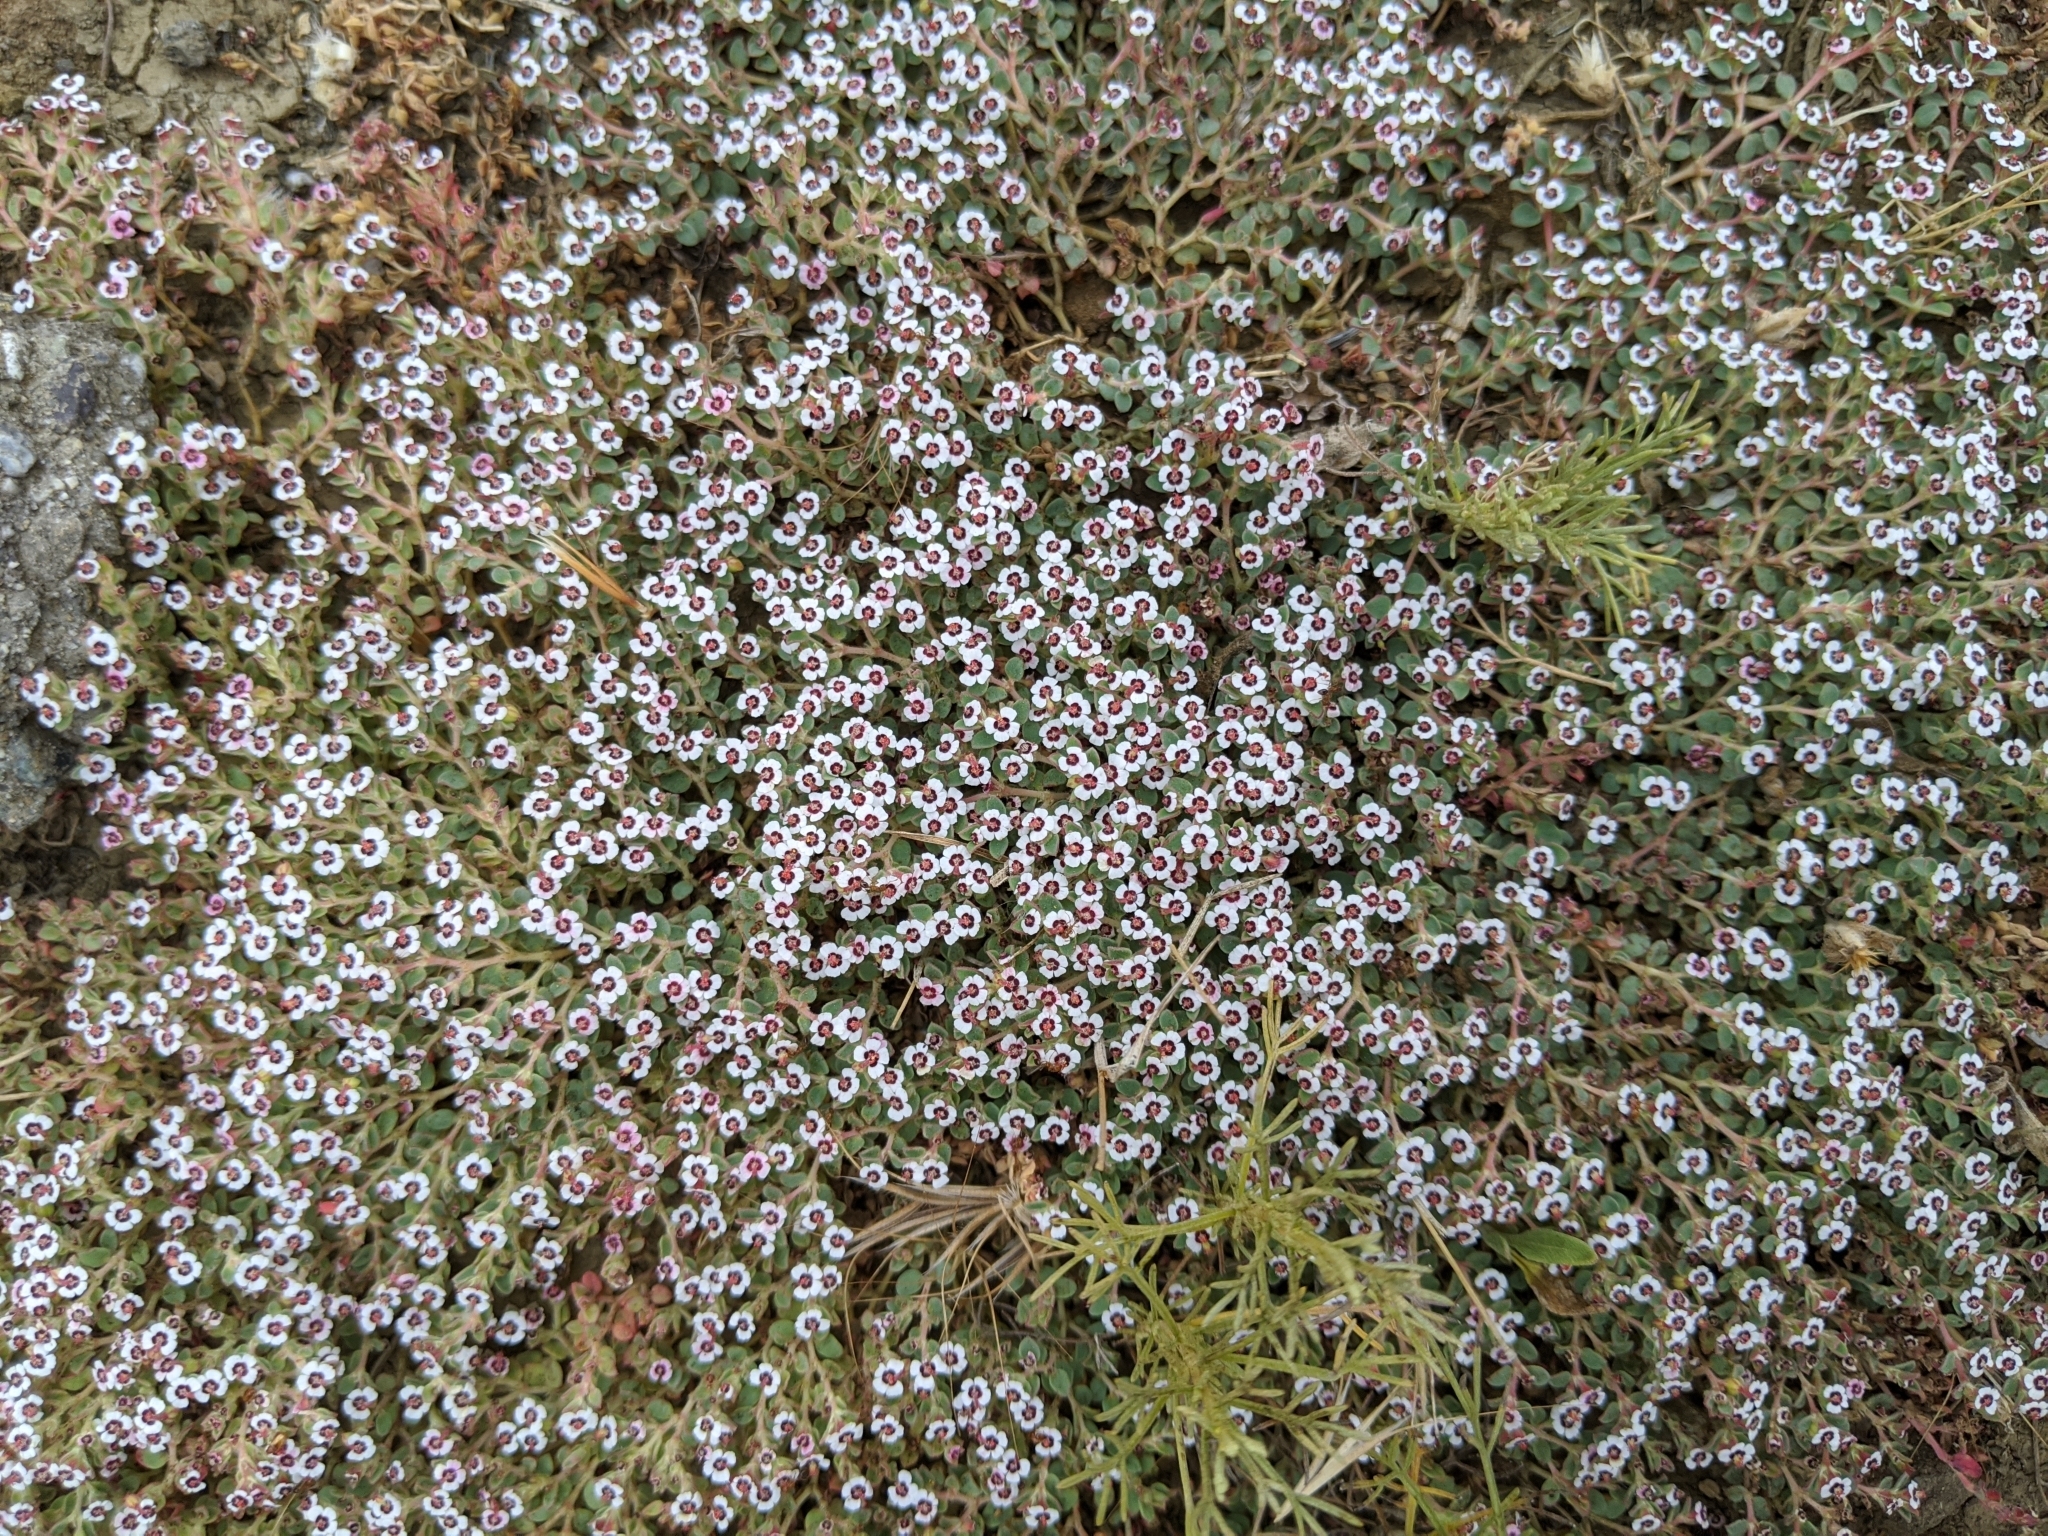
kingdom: Plantae
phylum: Tracheophyta
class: Magnoliopsida
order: Malpighiales
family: Euphorbiaceae
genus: Euphorbia
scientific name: Euphorbia polycarpa
